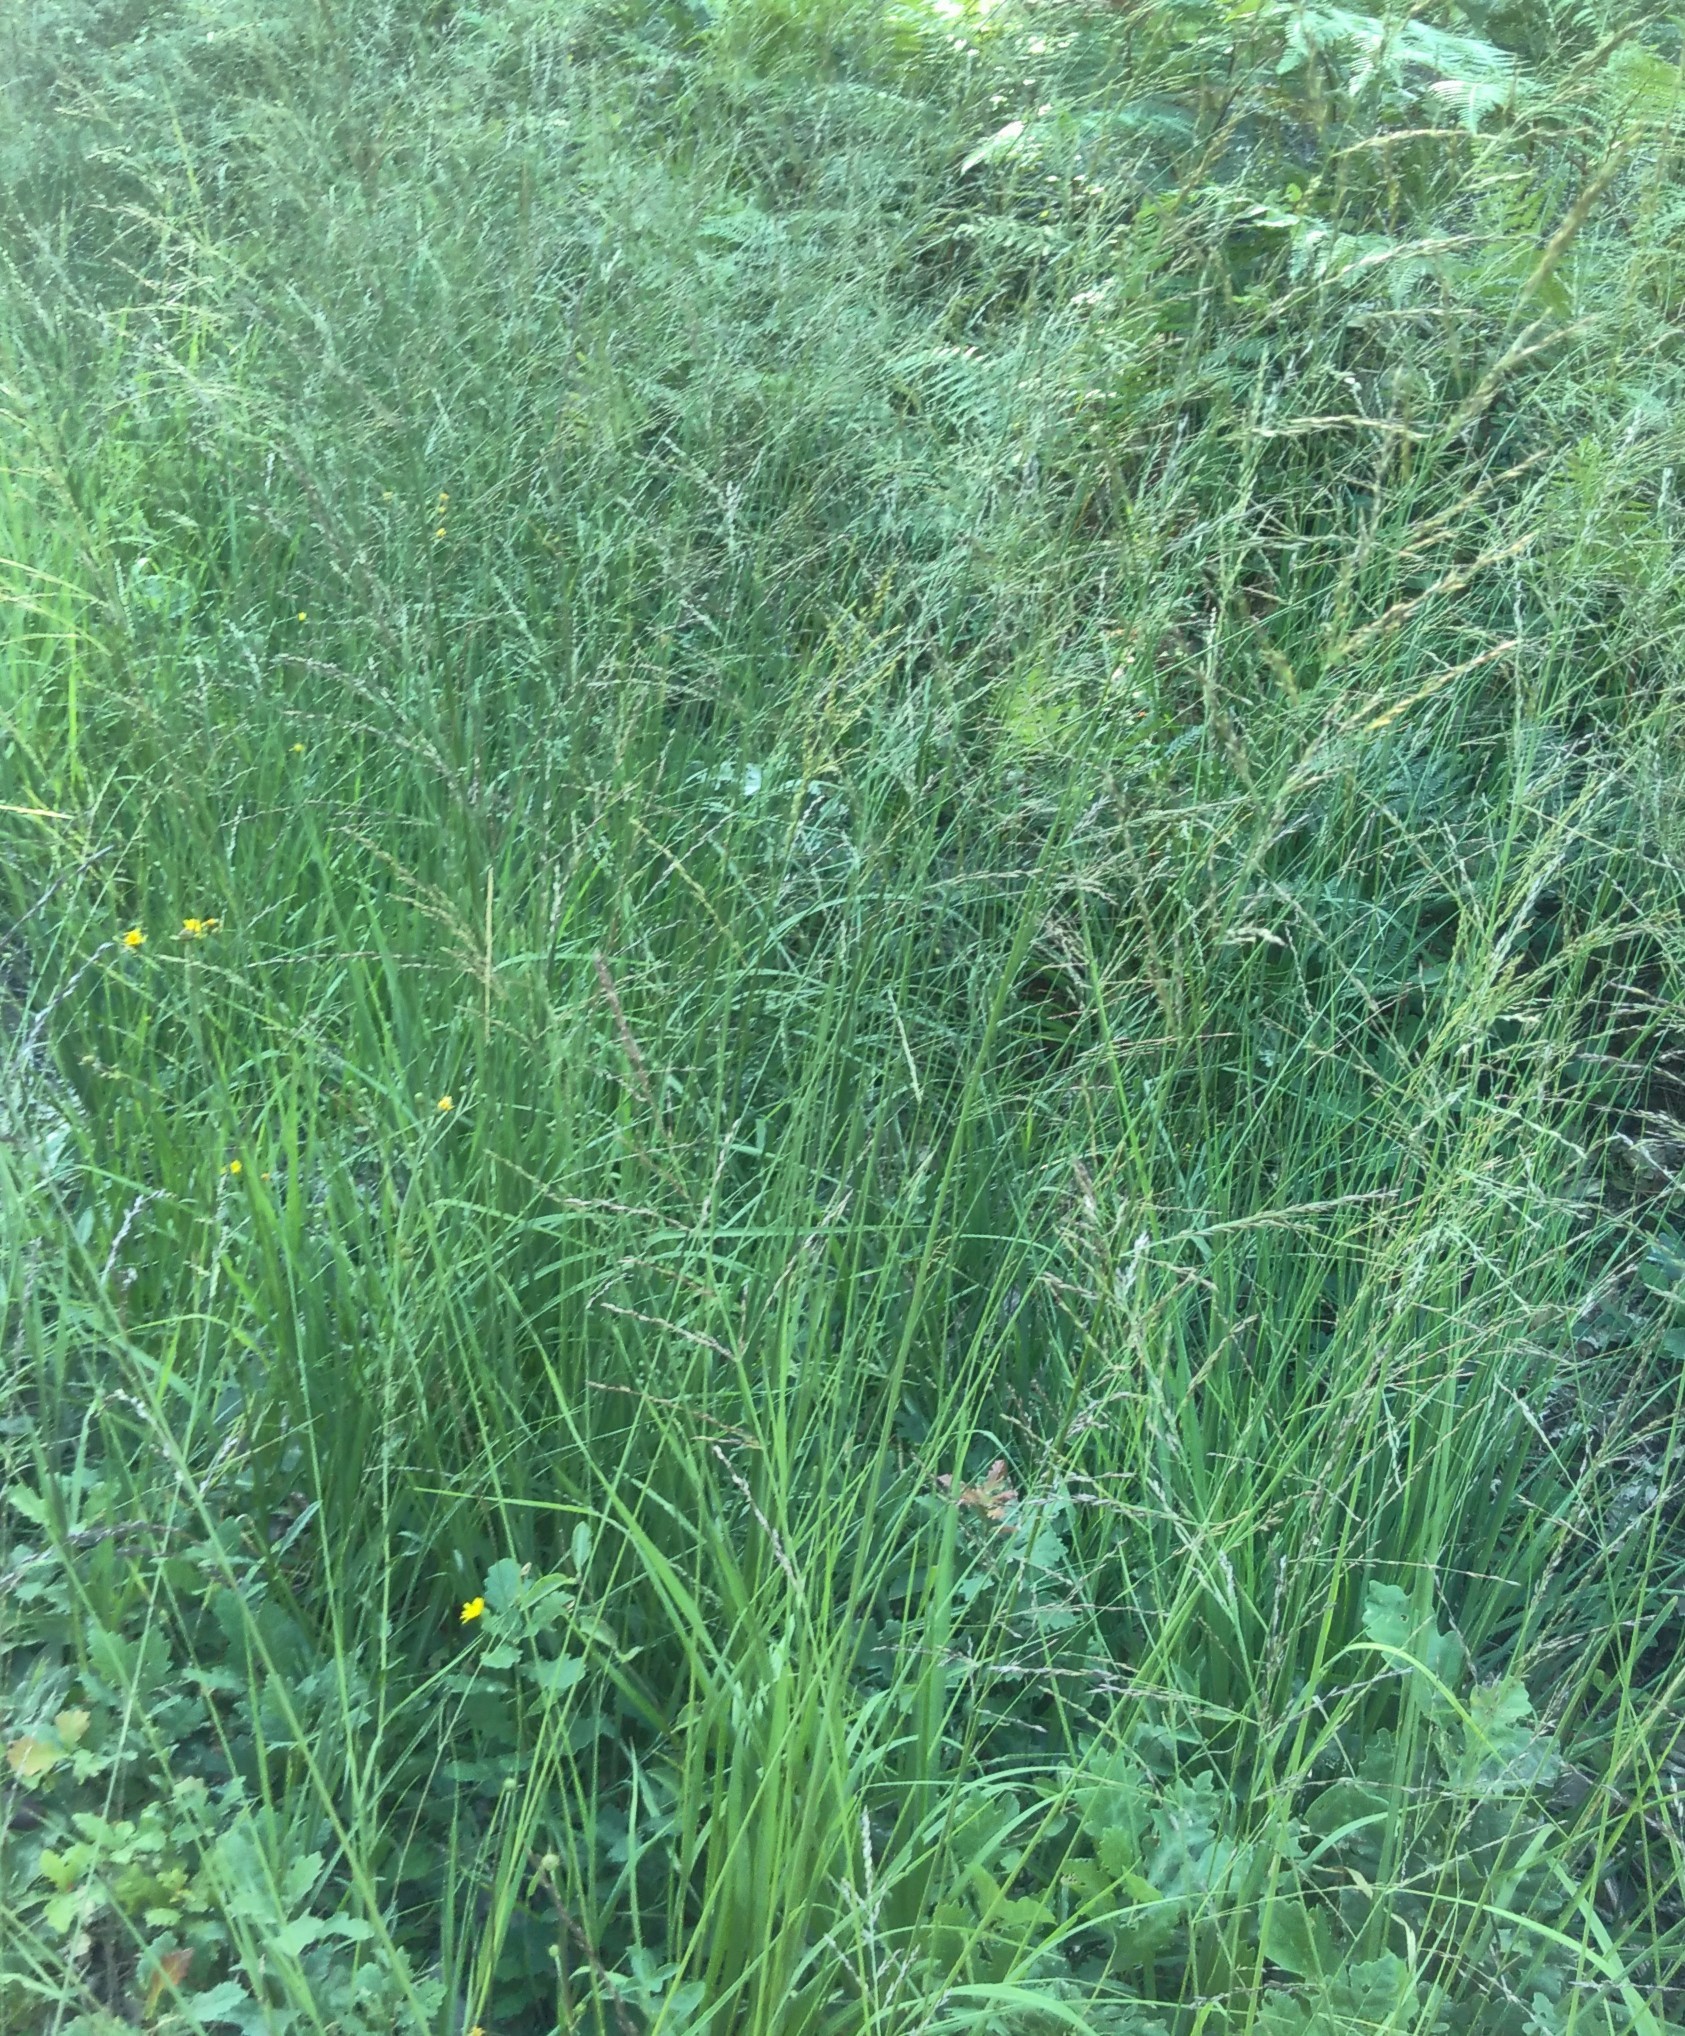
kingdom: Plantae
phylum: Tracheophyta
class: Liliopsida
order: Poales
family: Poaceae
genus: Molinia
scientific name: Molinia caerulea
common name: Purple moor-grass
